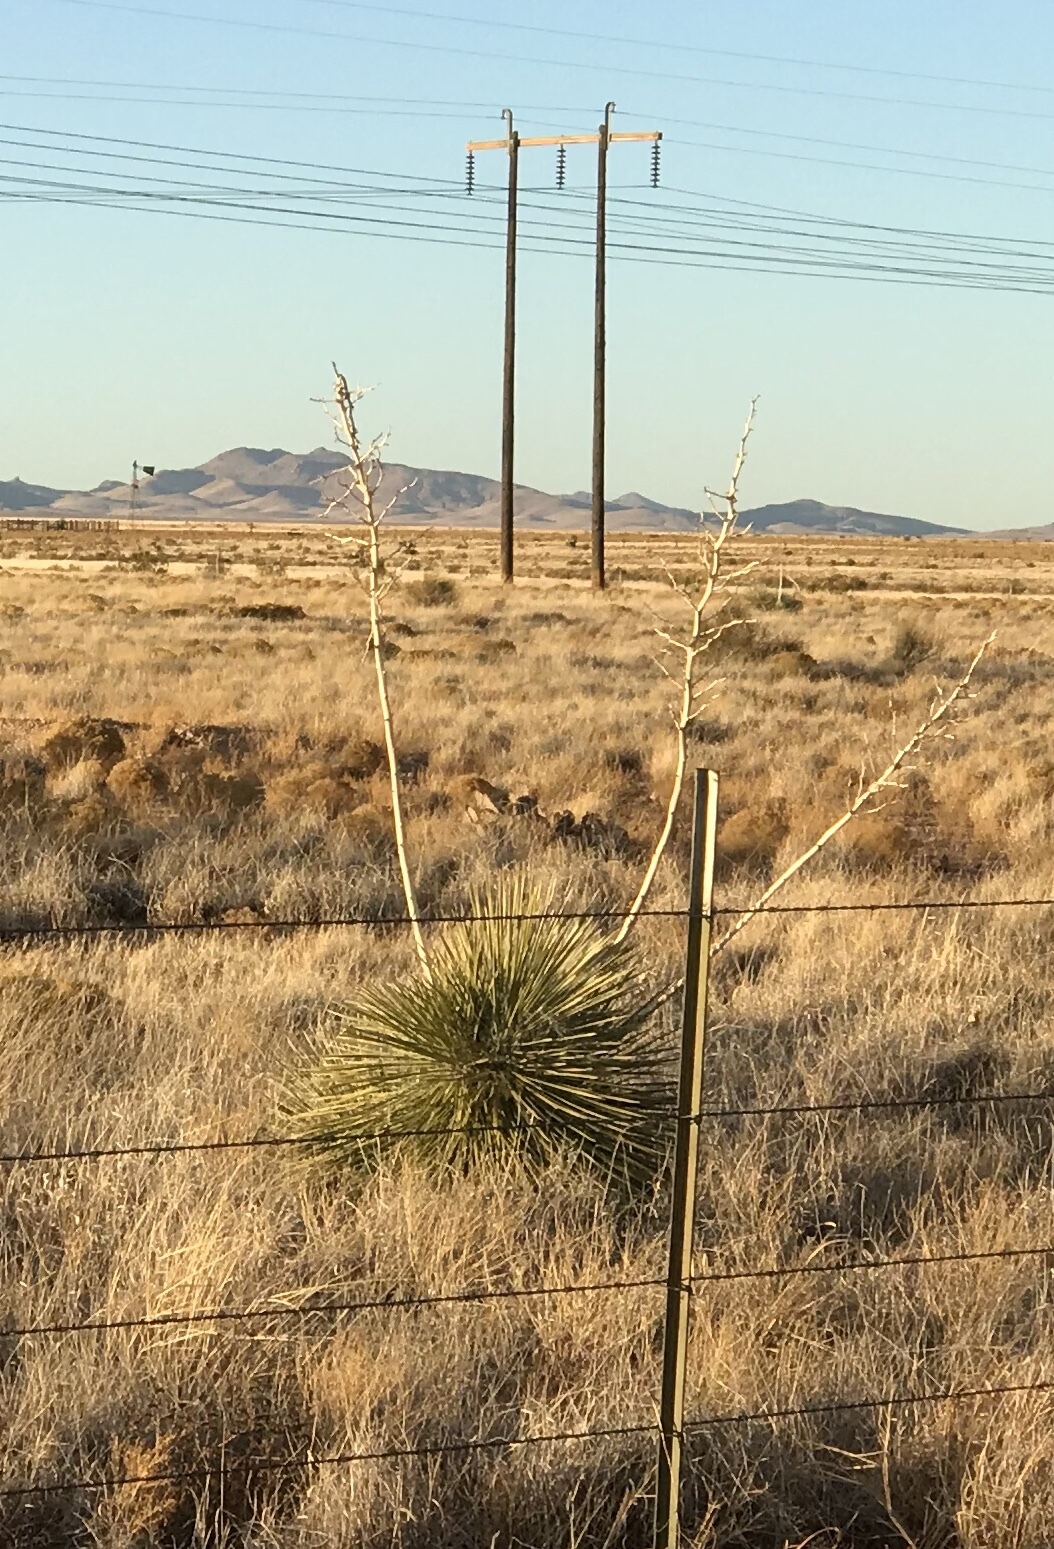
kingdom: Plantae
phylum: Tracheophyta
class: Liliopsida
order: Asparagales
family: Asparagaceae
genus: Yucca
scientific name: Yucca elata
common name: Palmella
